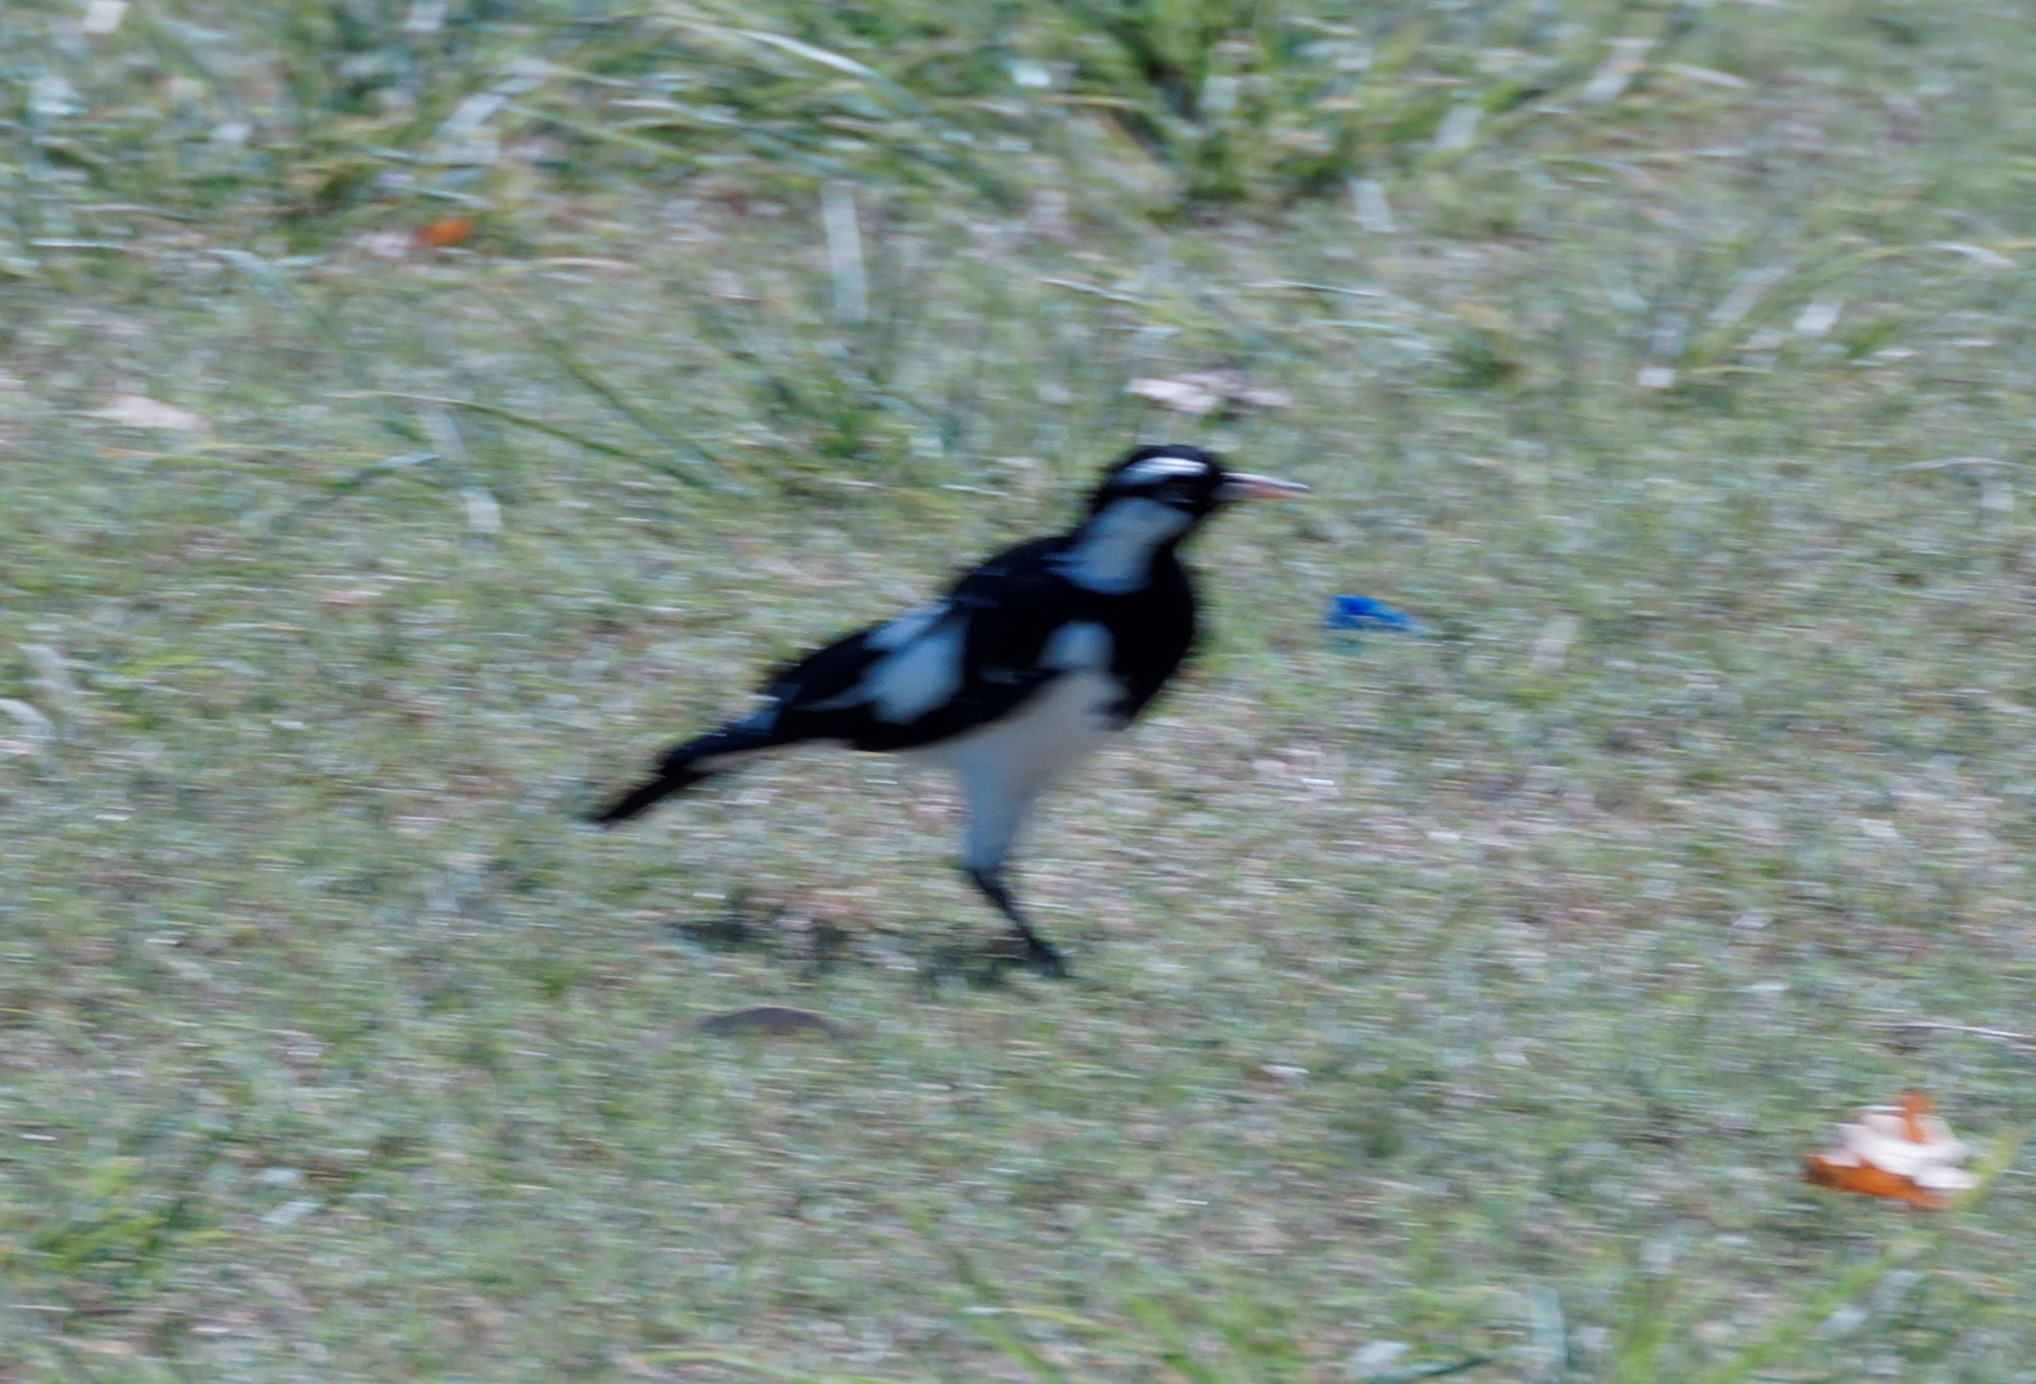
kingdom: Animalia
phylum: Chordata
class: Aves
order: Passeriformes
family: Monarchidae
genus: Grallina
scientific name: Grallina cyanoleuca
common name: Magpie-lark
